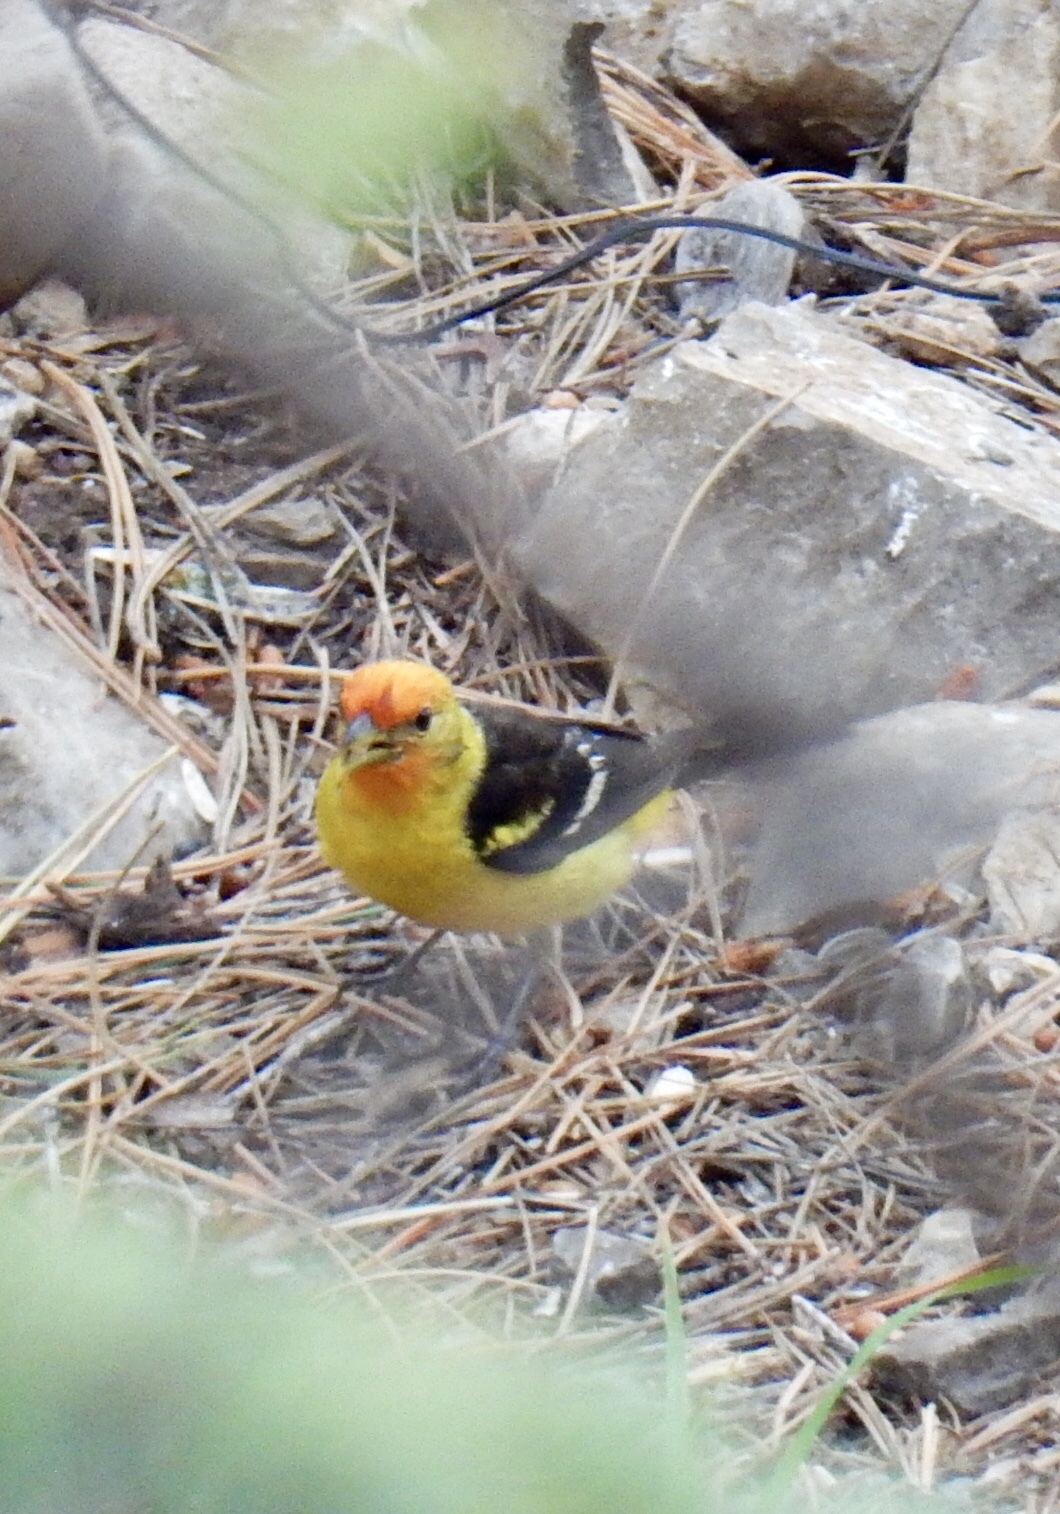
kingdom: Animalia
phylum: Chordata
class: Aves
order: Passeriformes
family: Cardinalidae
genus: Piranga
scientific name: Piranga ludoviciana
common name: Western tanager
